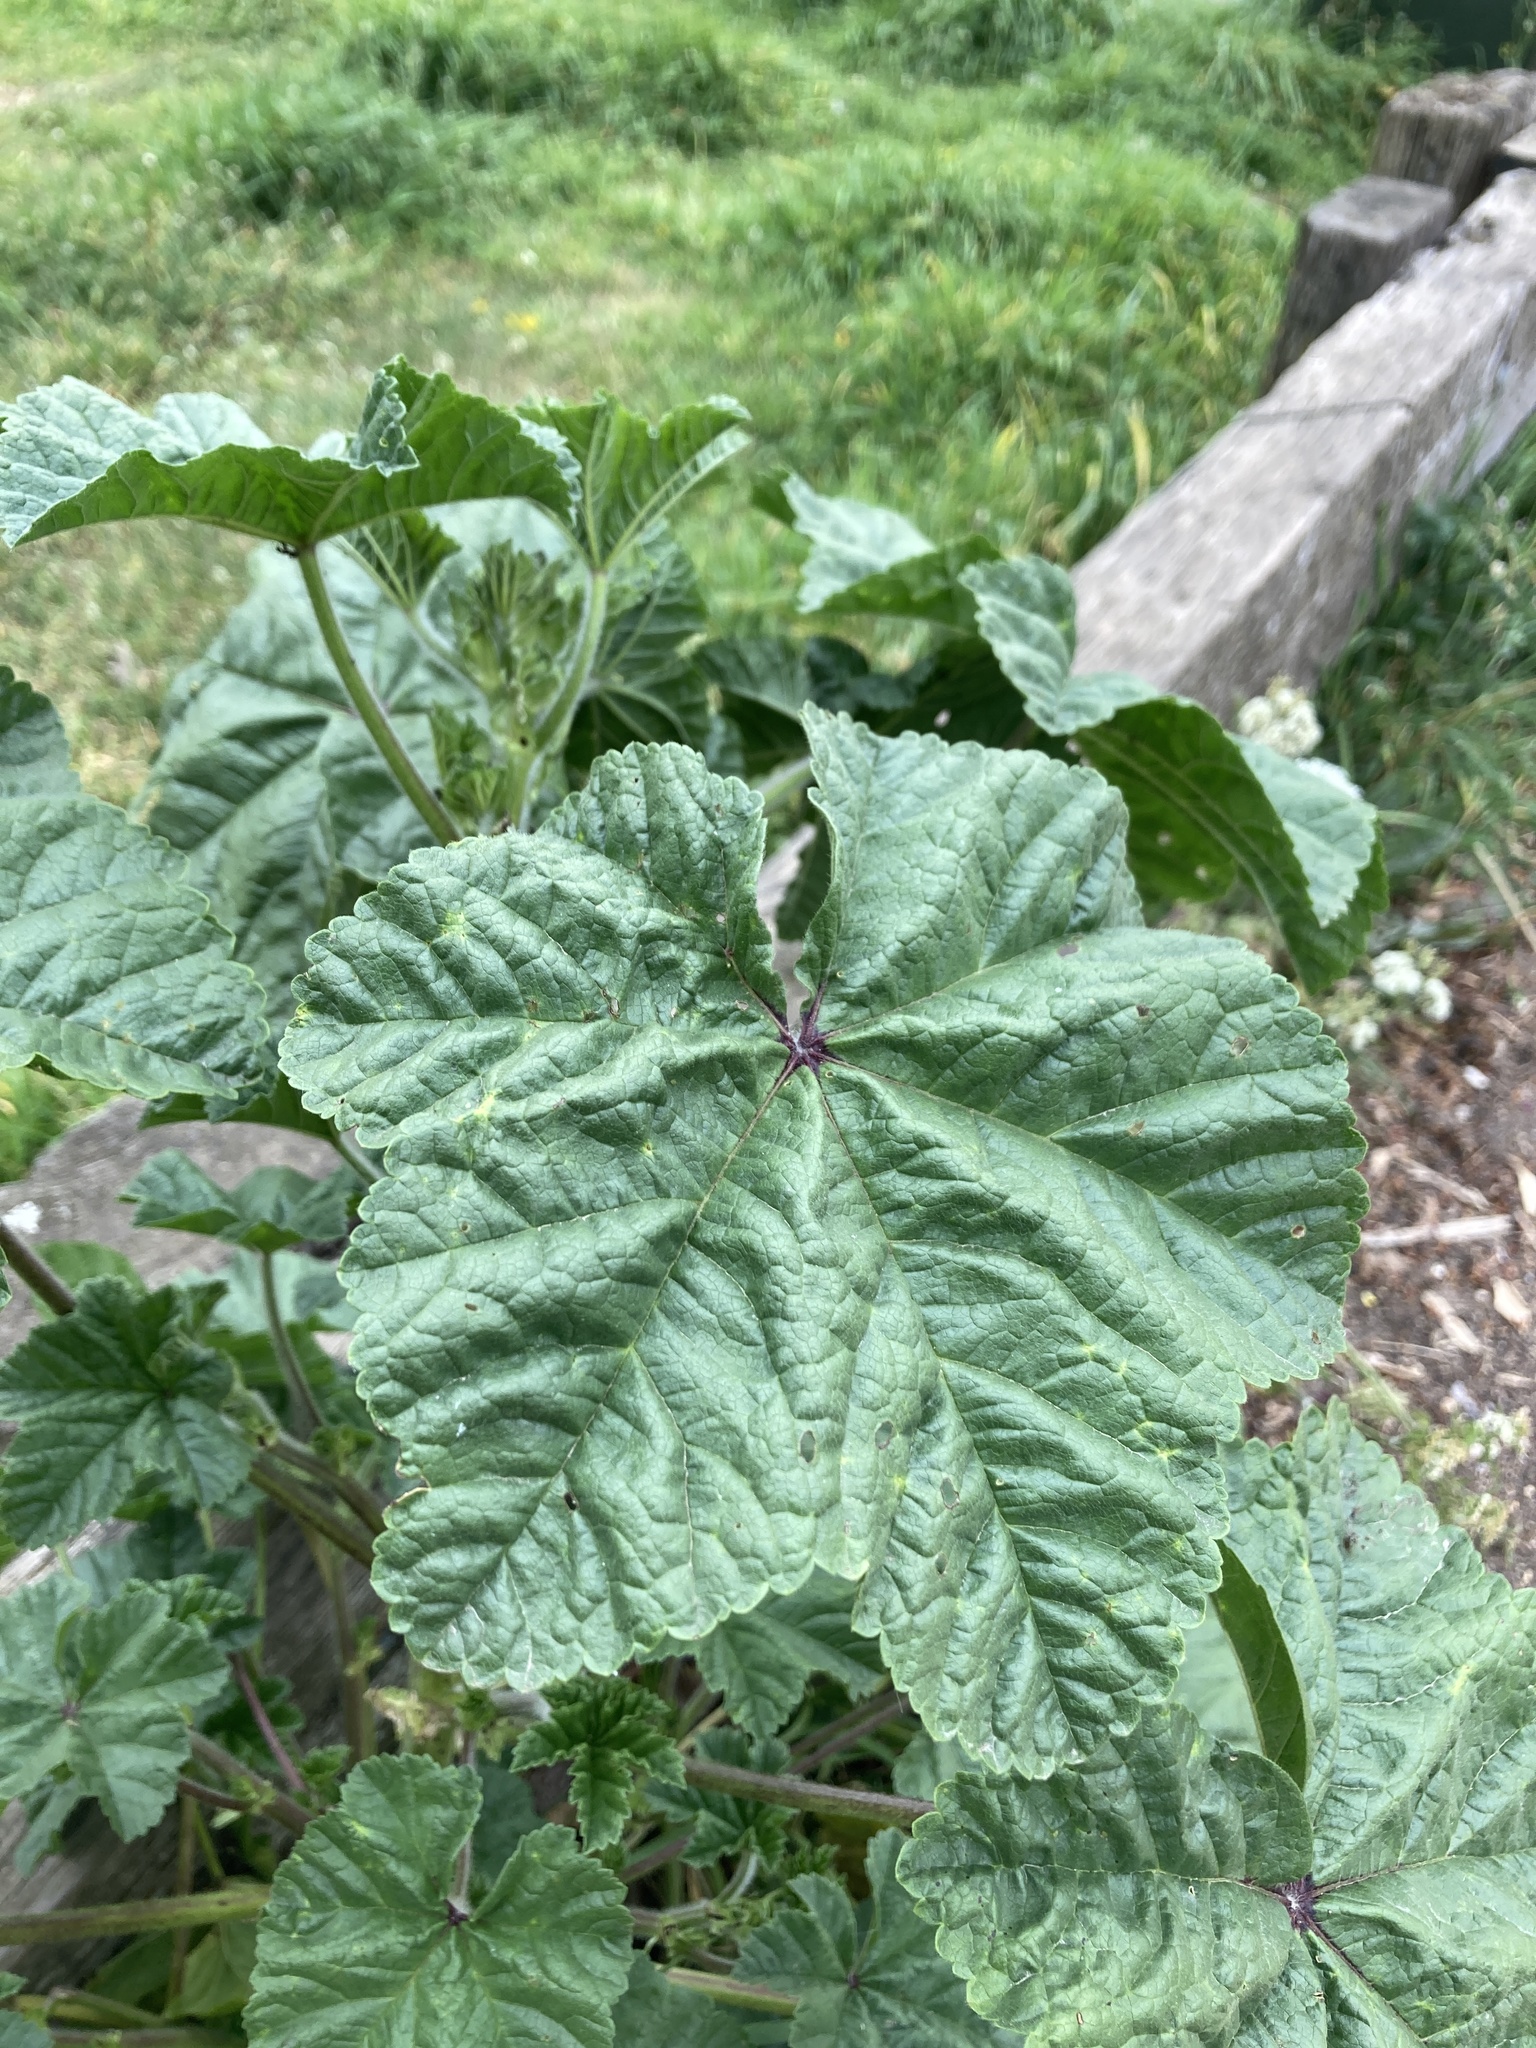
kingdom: Plantae
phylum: Tracheophyta
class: Magnoliopsida
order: Malvales
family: Malvaceae
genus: Malva
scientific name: Malva sylvestris
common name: Common mallow
